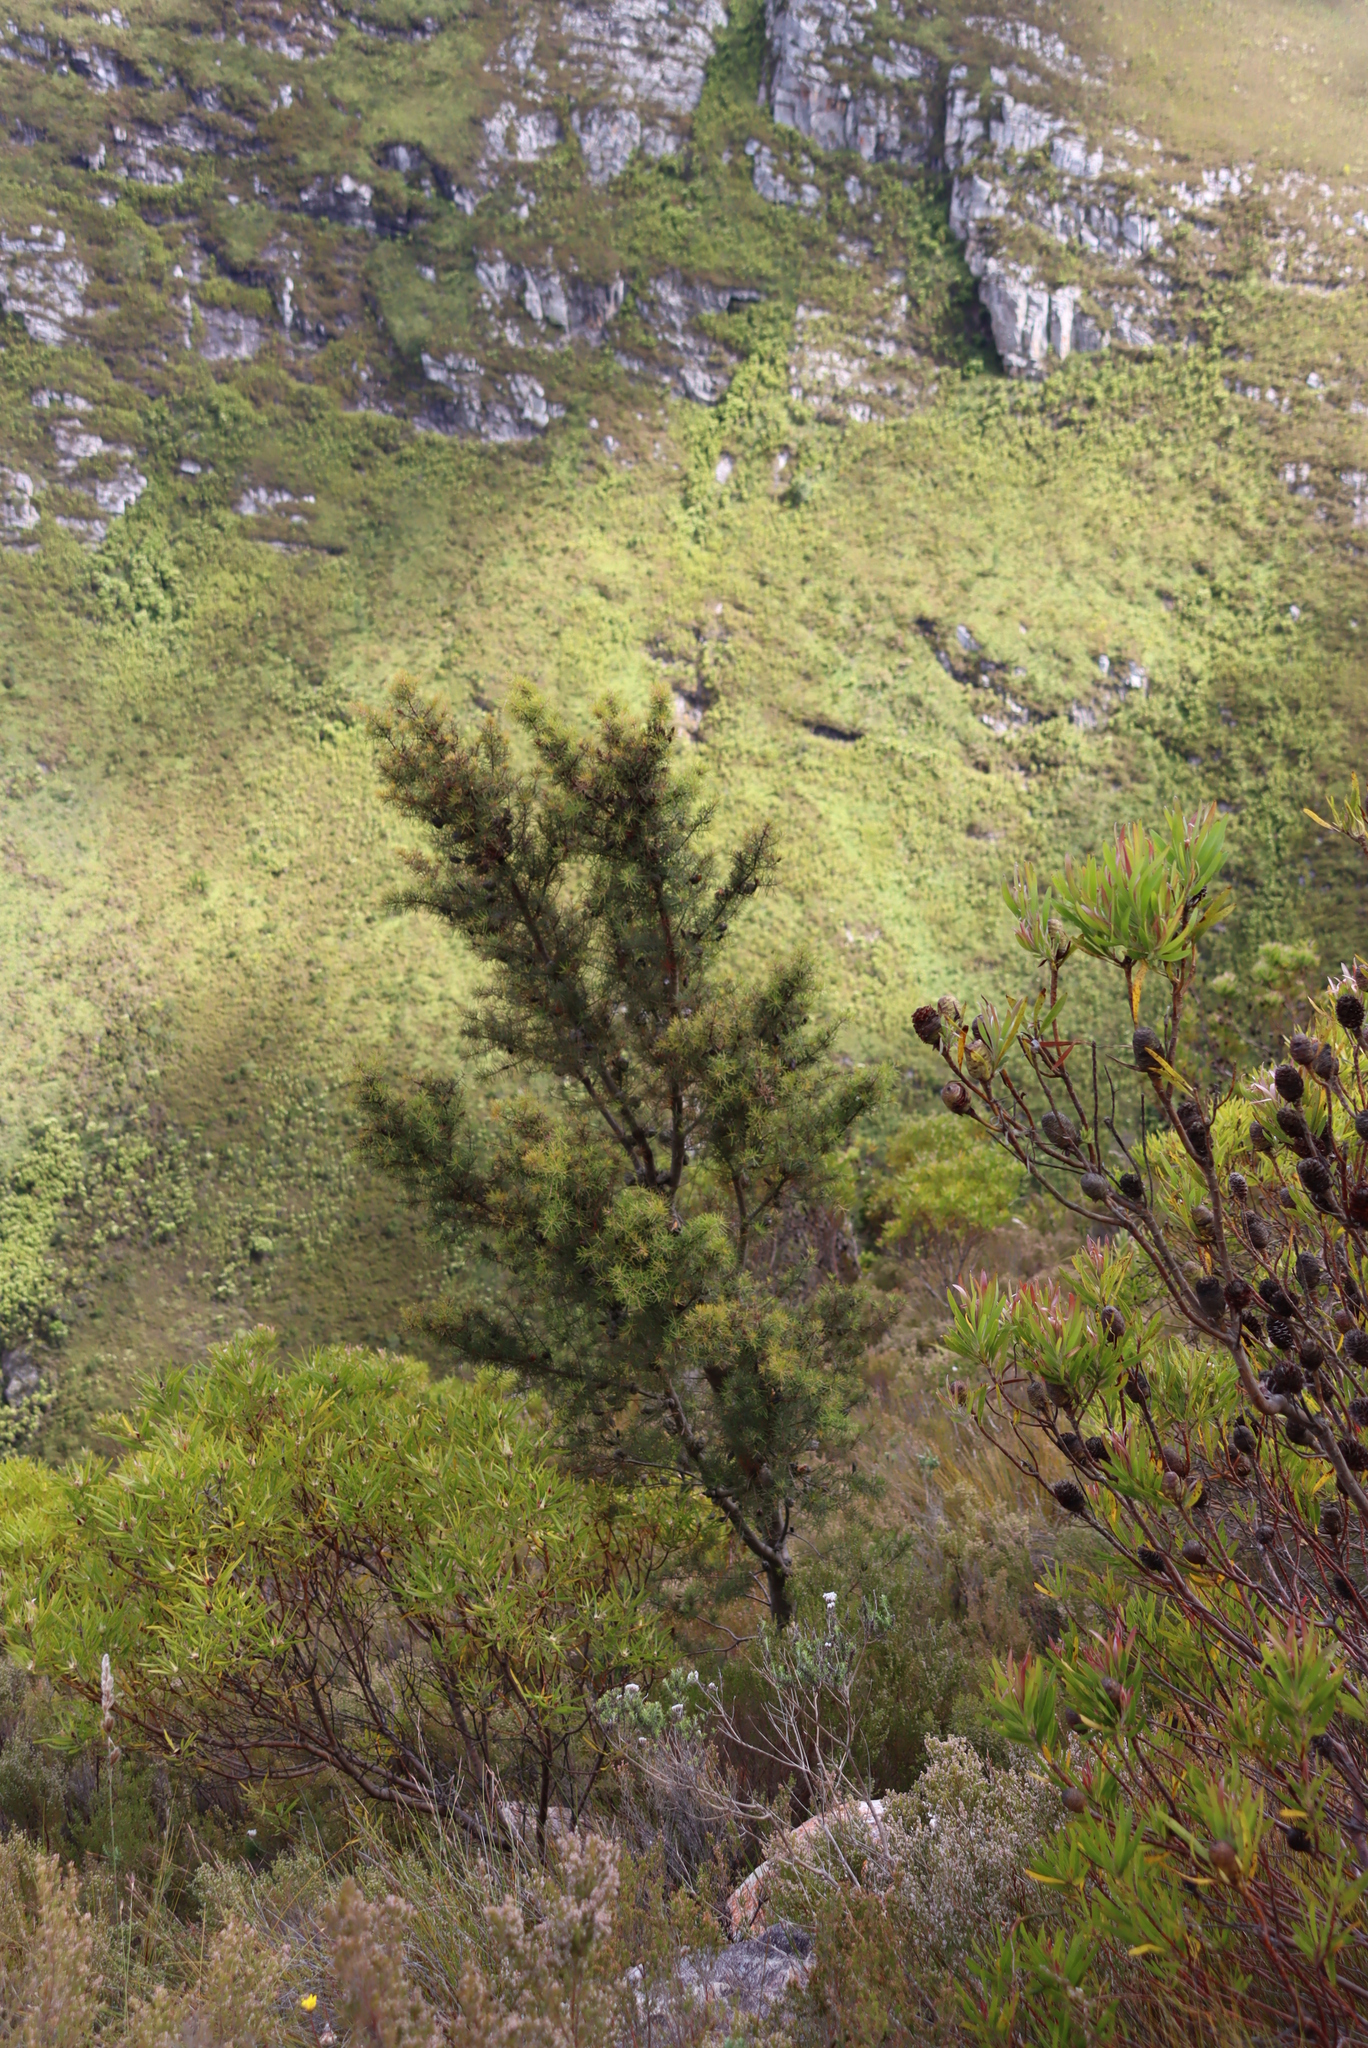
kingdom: Plantae
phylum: Tracheophyta
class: Magnoliopsida
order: Proteales
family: Proteaceae
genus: Hakea
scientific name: Hakea sericea
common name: Needle bush
